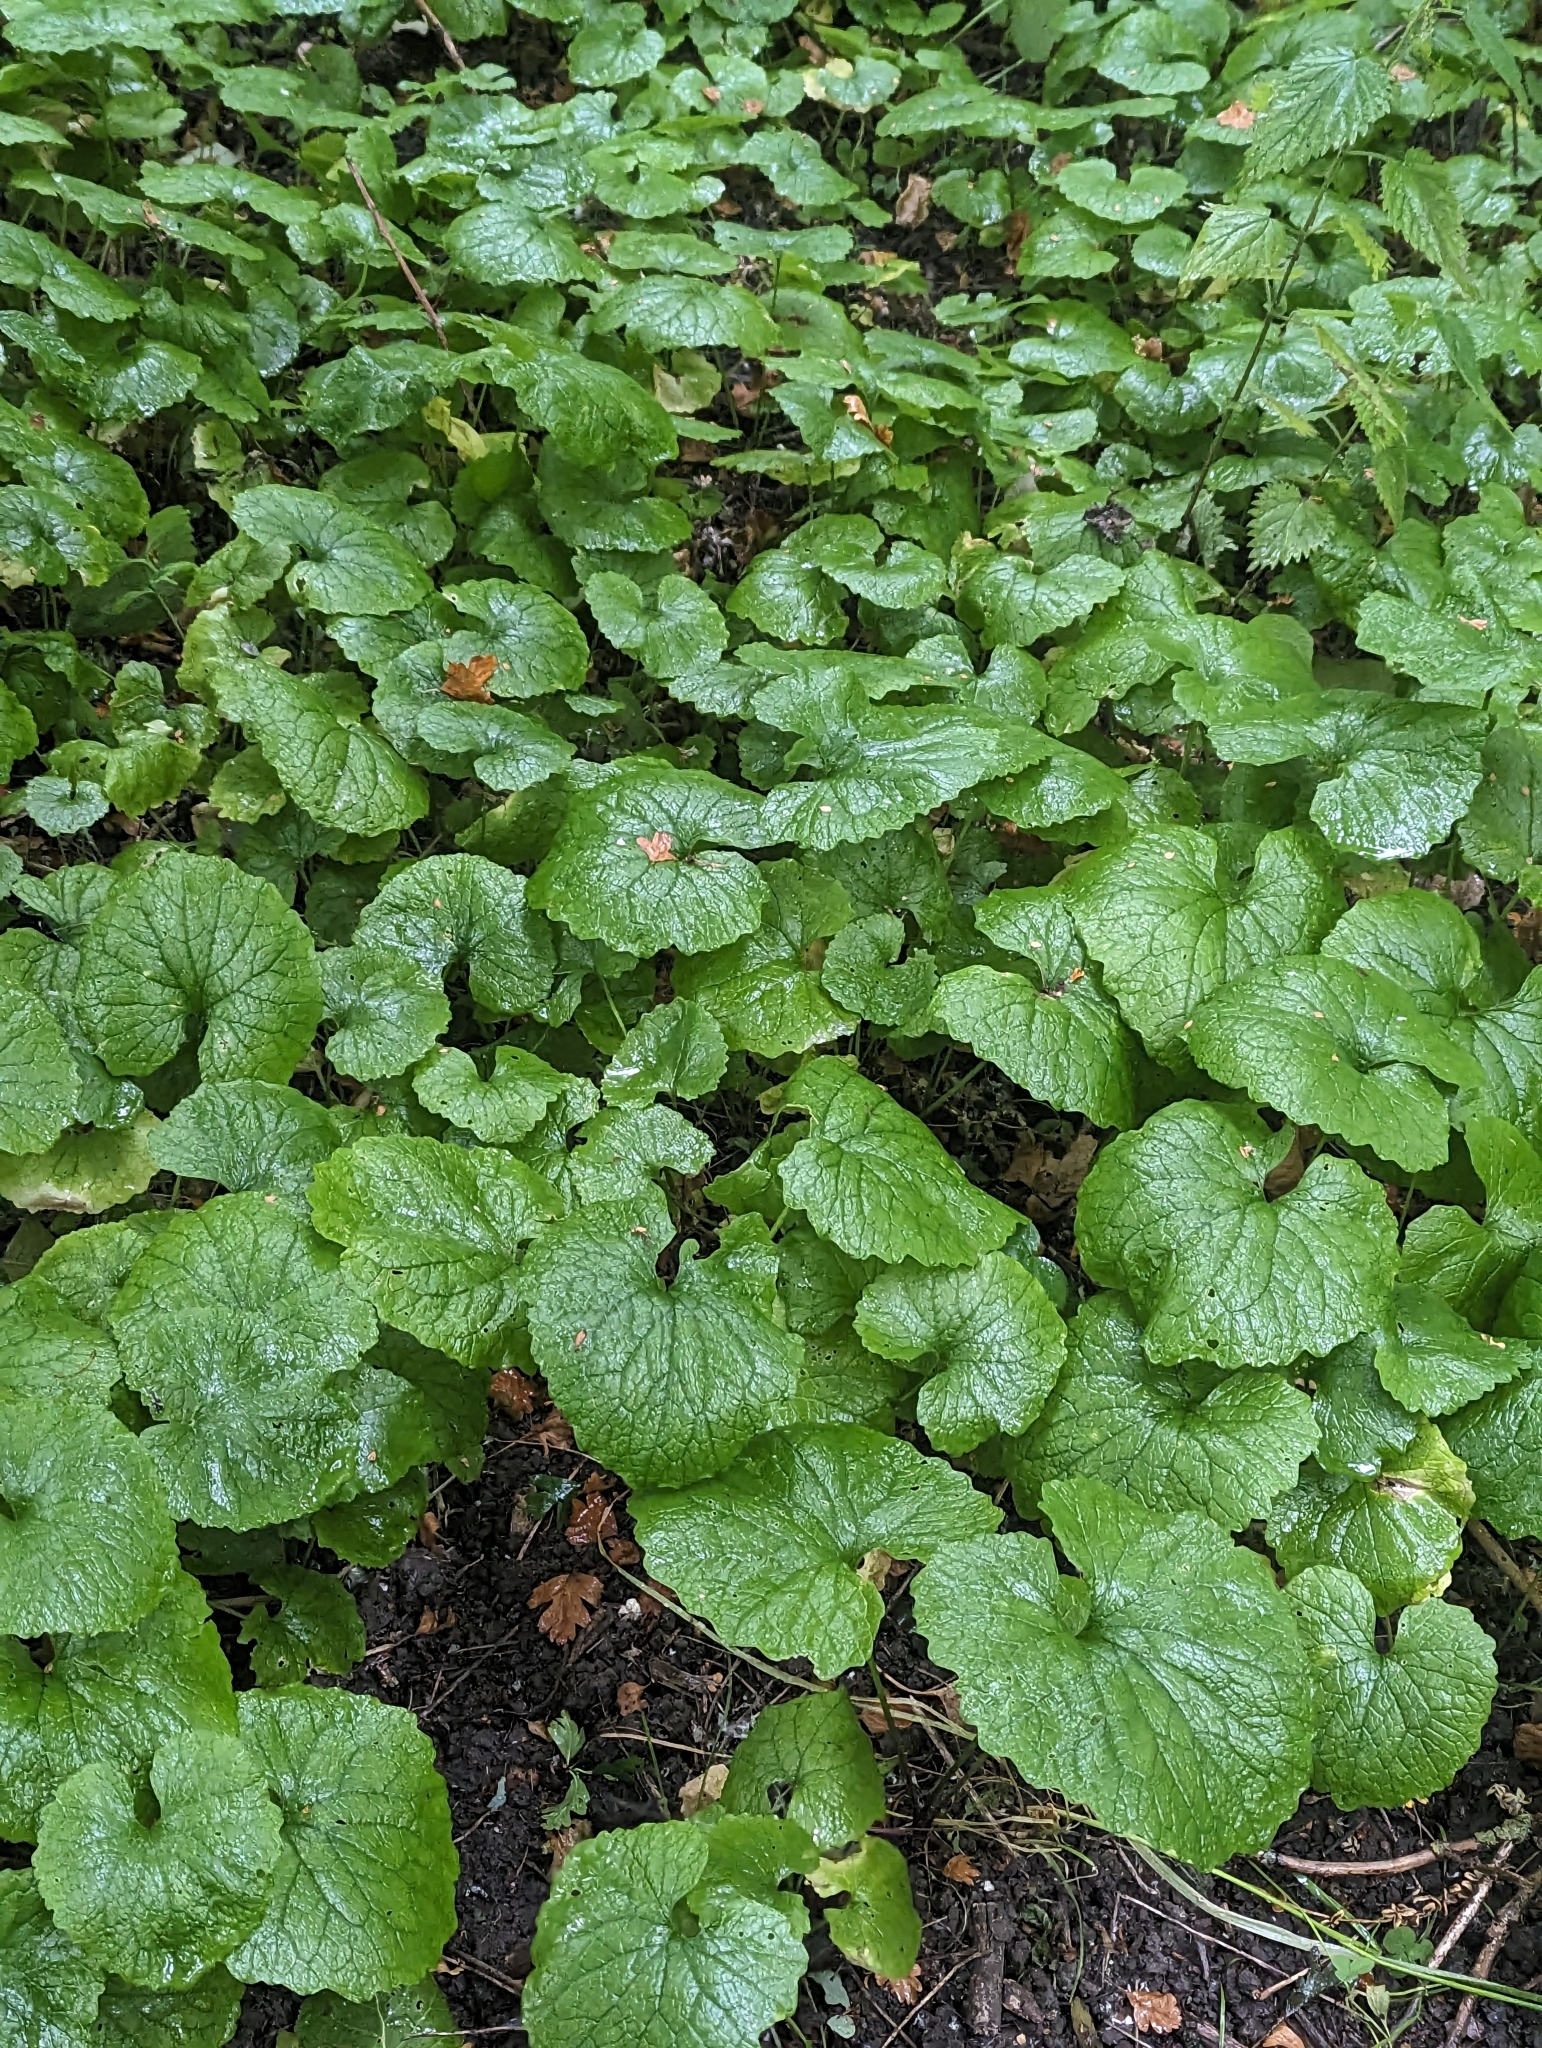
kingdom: Plantae
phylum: Tracheophyta
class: Magnoliopsida
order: Brassicales
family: Brassicaceae
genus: Alliaria
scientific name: Alliaria petiolata
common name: Garlic mustard
